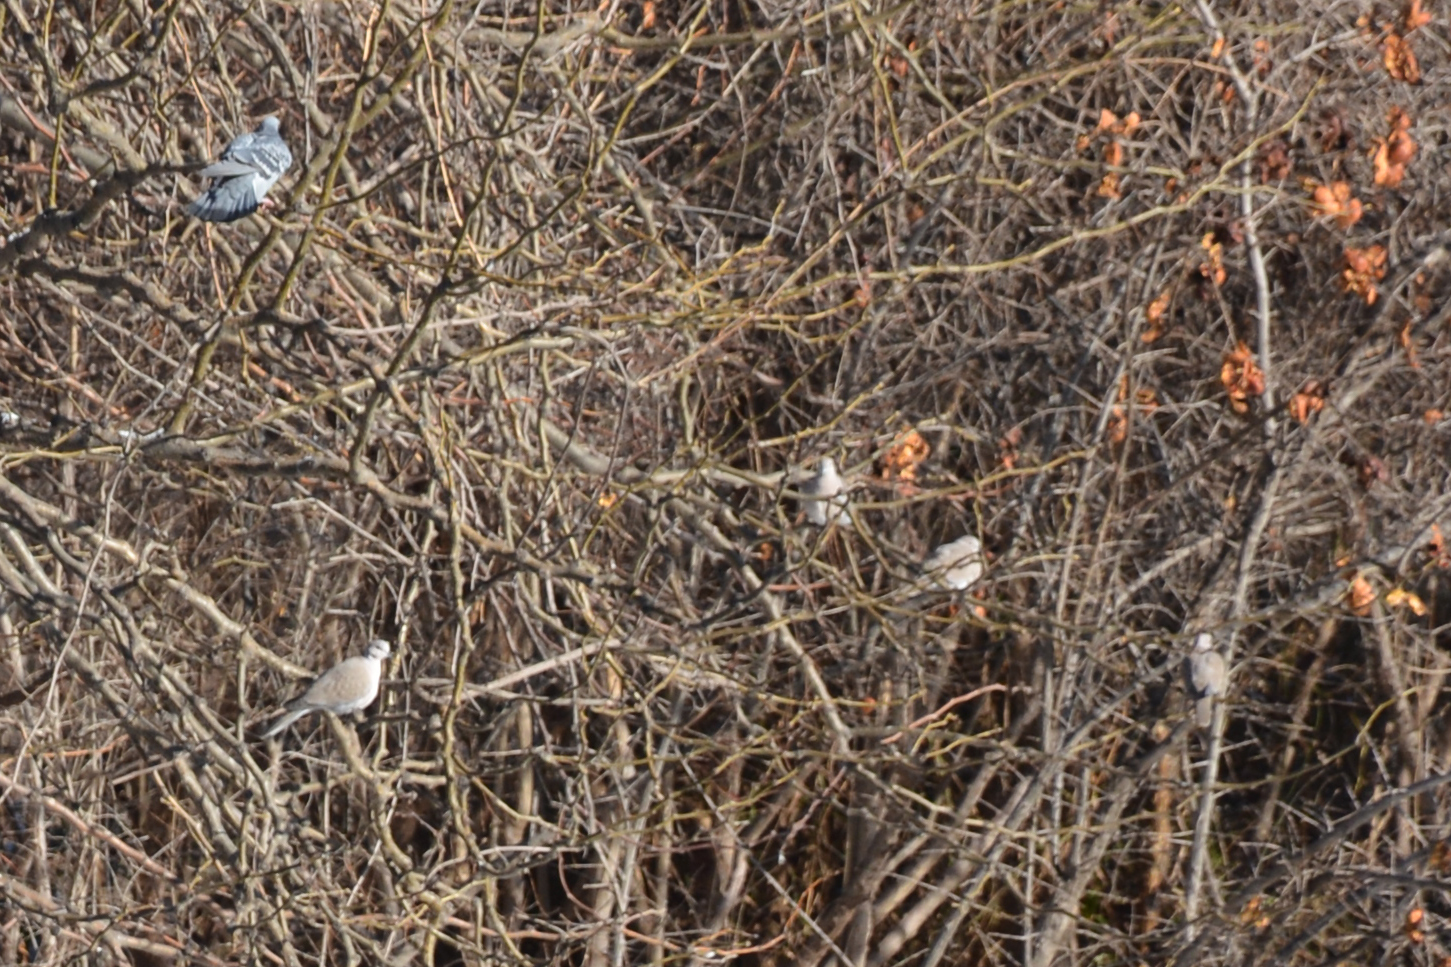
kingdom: Animalia
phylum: Chordata
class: Aves
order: Columbiformes
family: Columbidae
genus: Streptopelia
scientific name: Streptopelia decaocto
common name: Eurasian collared dove
